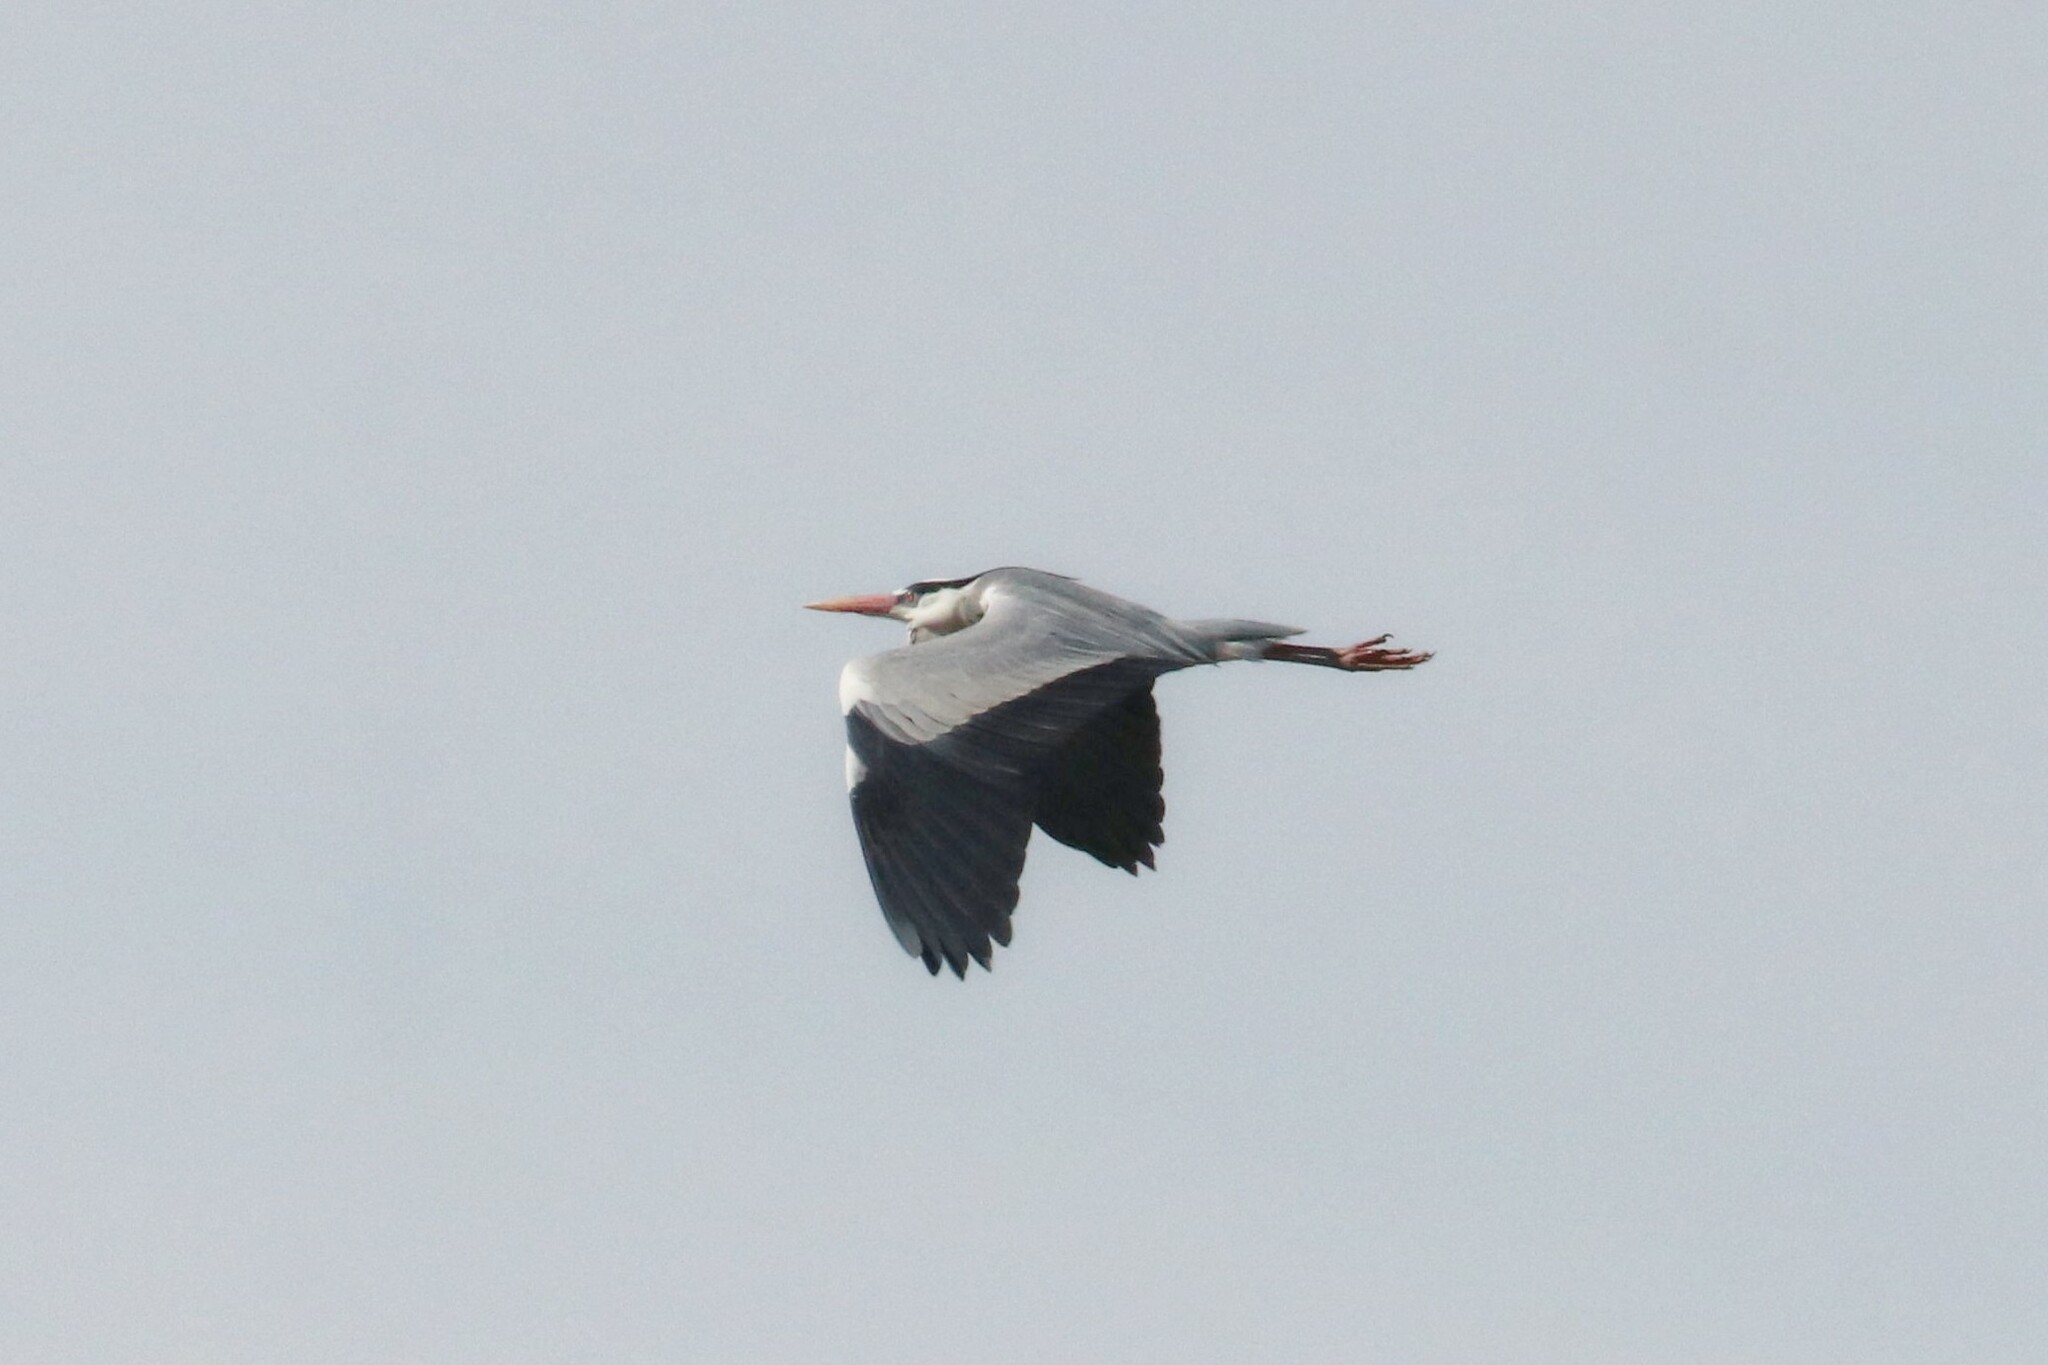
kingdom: Animalia
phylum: Chordata
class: Aves
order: Pelecaniformes
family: Ardeidae
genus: Ardea
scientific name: Ardea cinerea
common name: Grey heron
